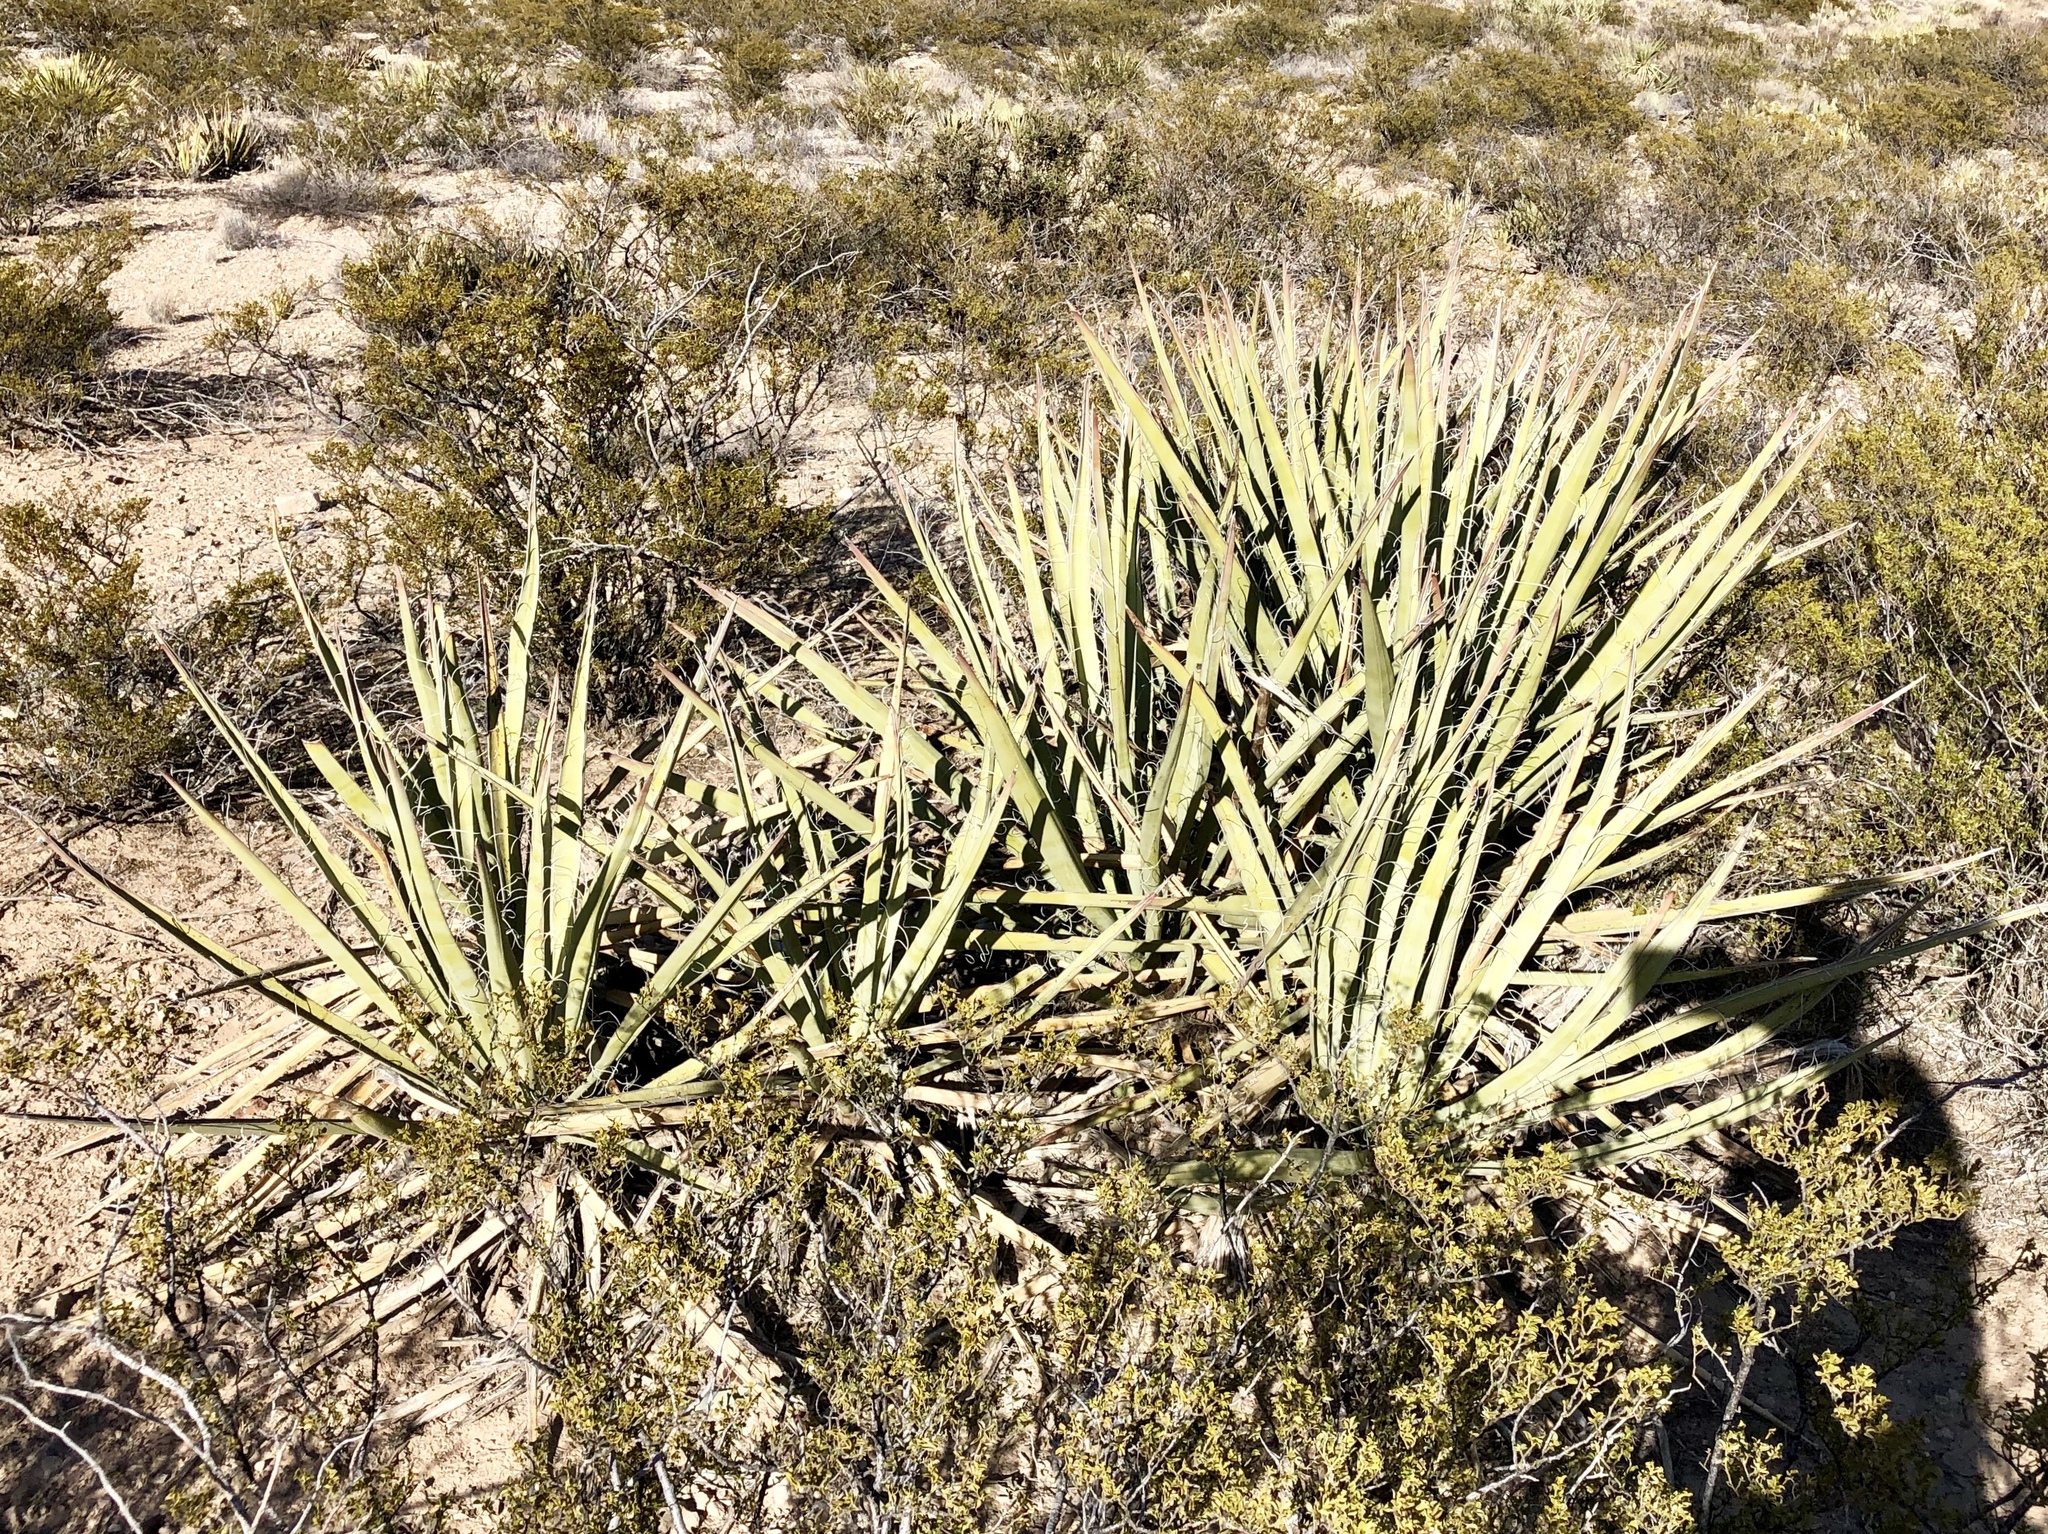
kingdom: Plantae
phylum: Tracheophyta
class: Liliopsida
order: Asparagales
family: Asparagaceae
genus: Yucca
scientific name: Yucca baccata
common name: Banana yucca
